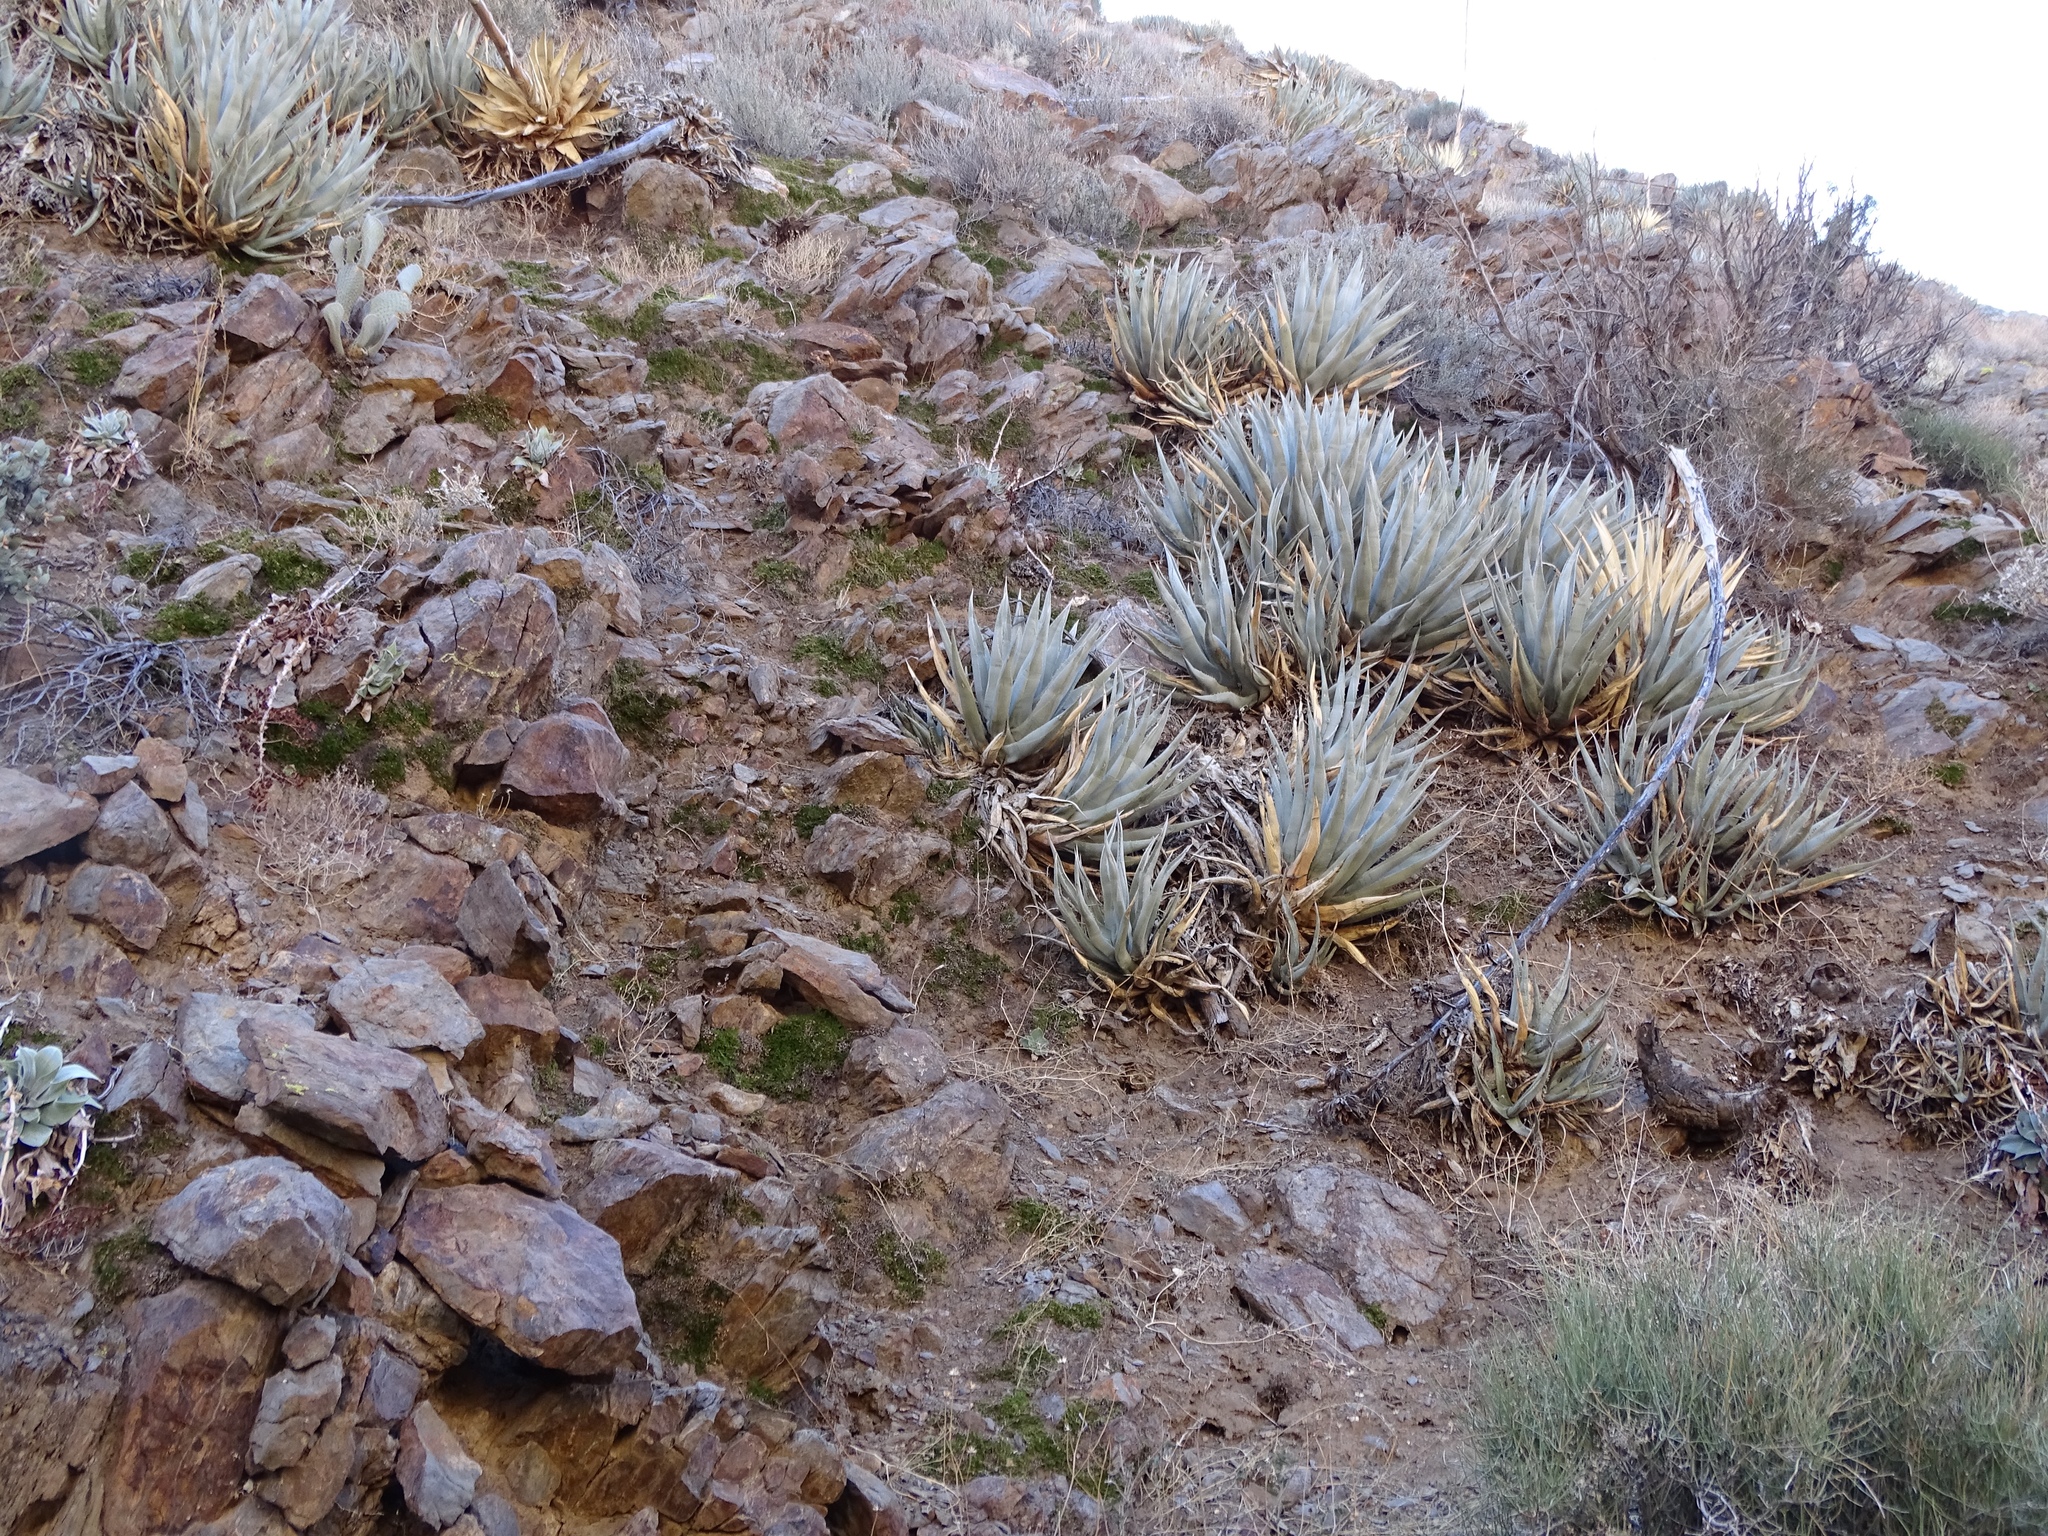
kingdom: Plantae
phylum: Tracheophyta
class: Liliopsida
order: Asparagales
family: Asparagaceae
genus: Agave
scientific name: Agave deserti
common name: Desert agave
